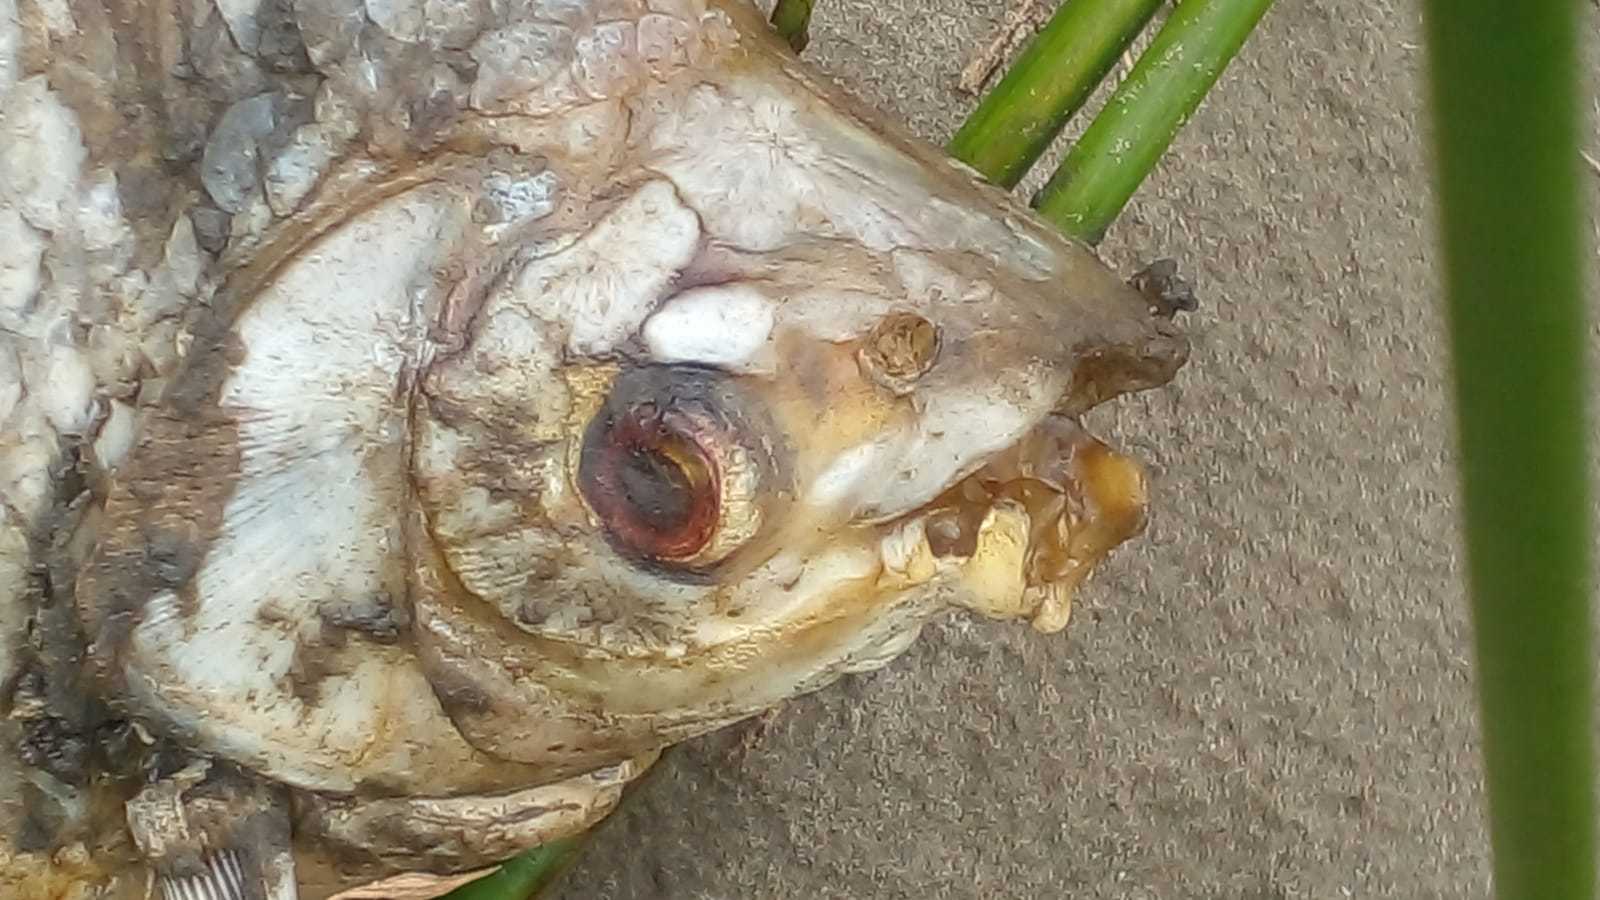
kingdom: Animalia
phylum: Chordata
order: Characiformes
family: Prochilodontidae
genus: Prochilodus
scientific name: Prochilodus lineatus
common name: Curimbata
